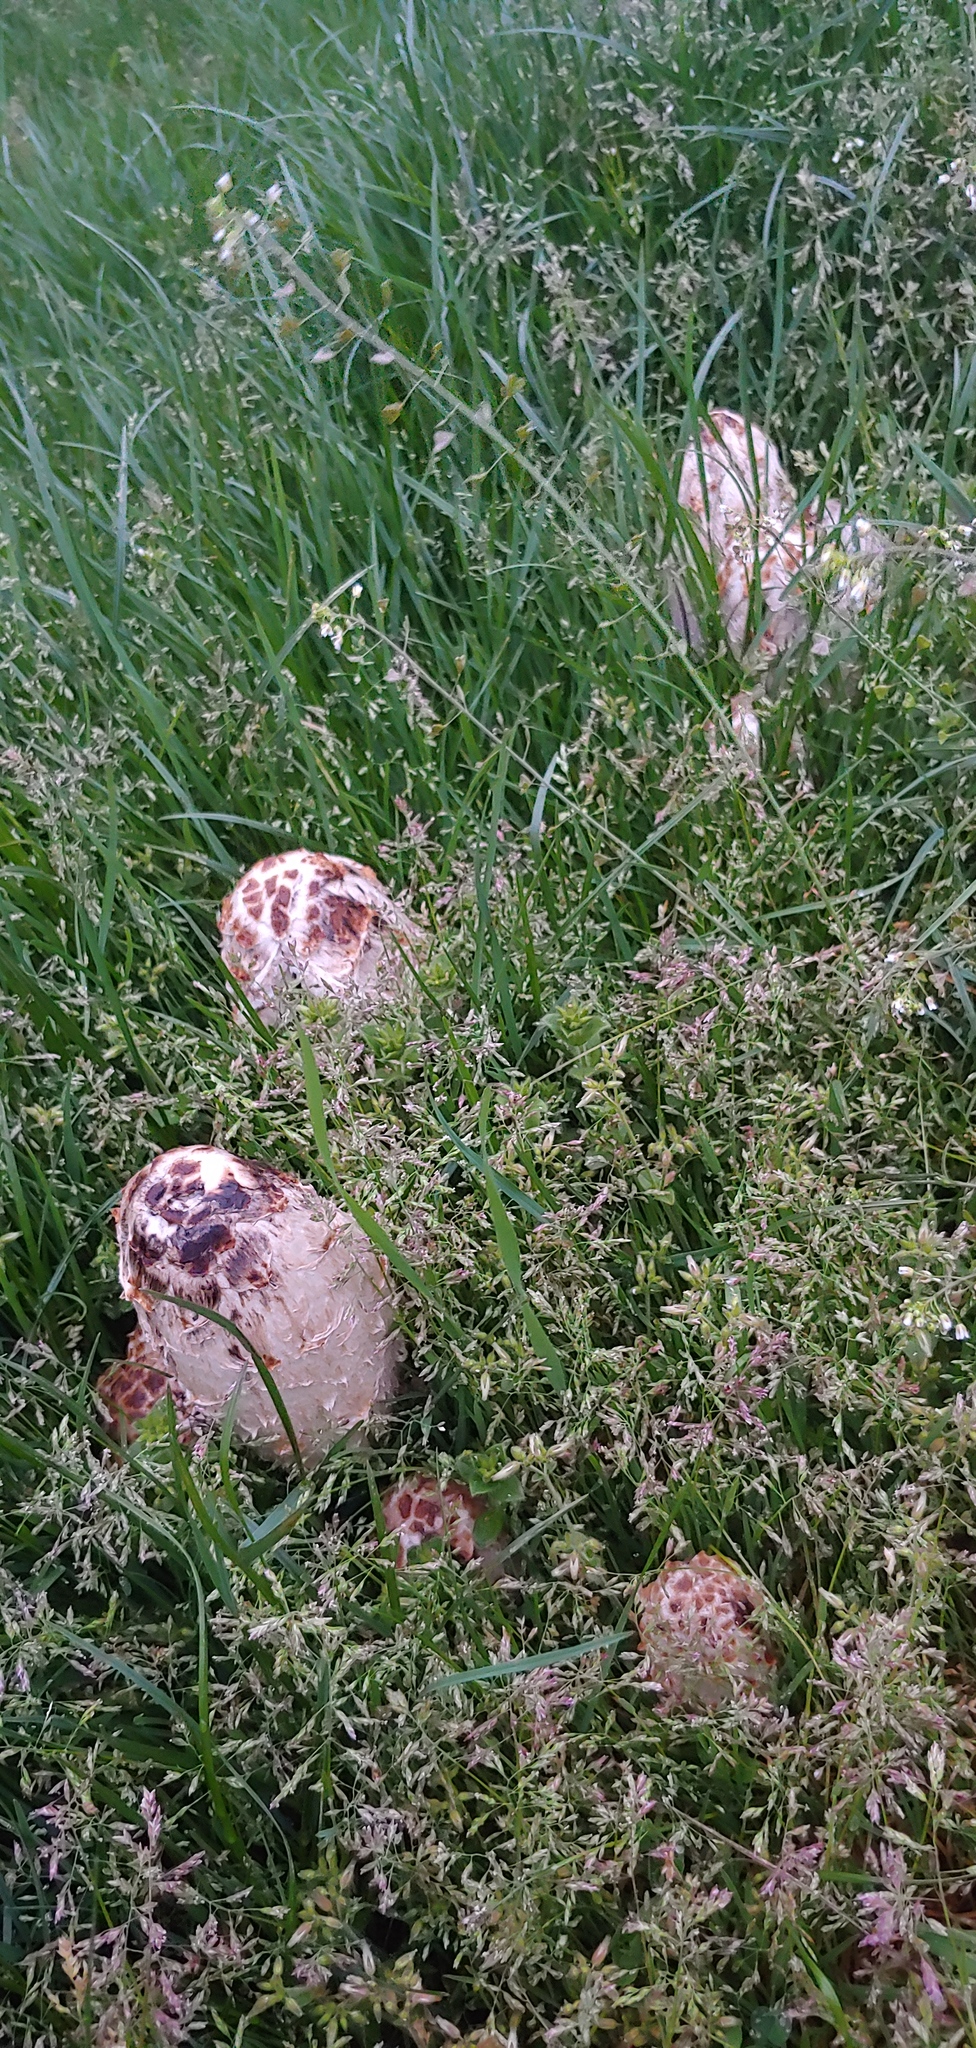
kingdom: Fungi
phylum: Basidiomycota
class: Agaricomycetes
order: Agaricales
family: Agaricaceae
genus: Coprinus
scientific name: Coprinus comatus
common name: Lawyer's wig
